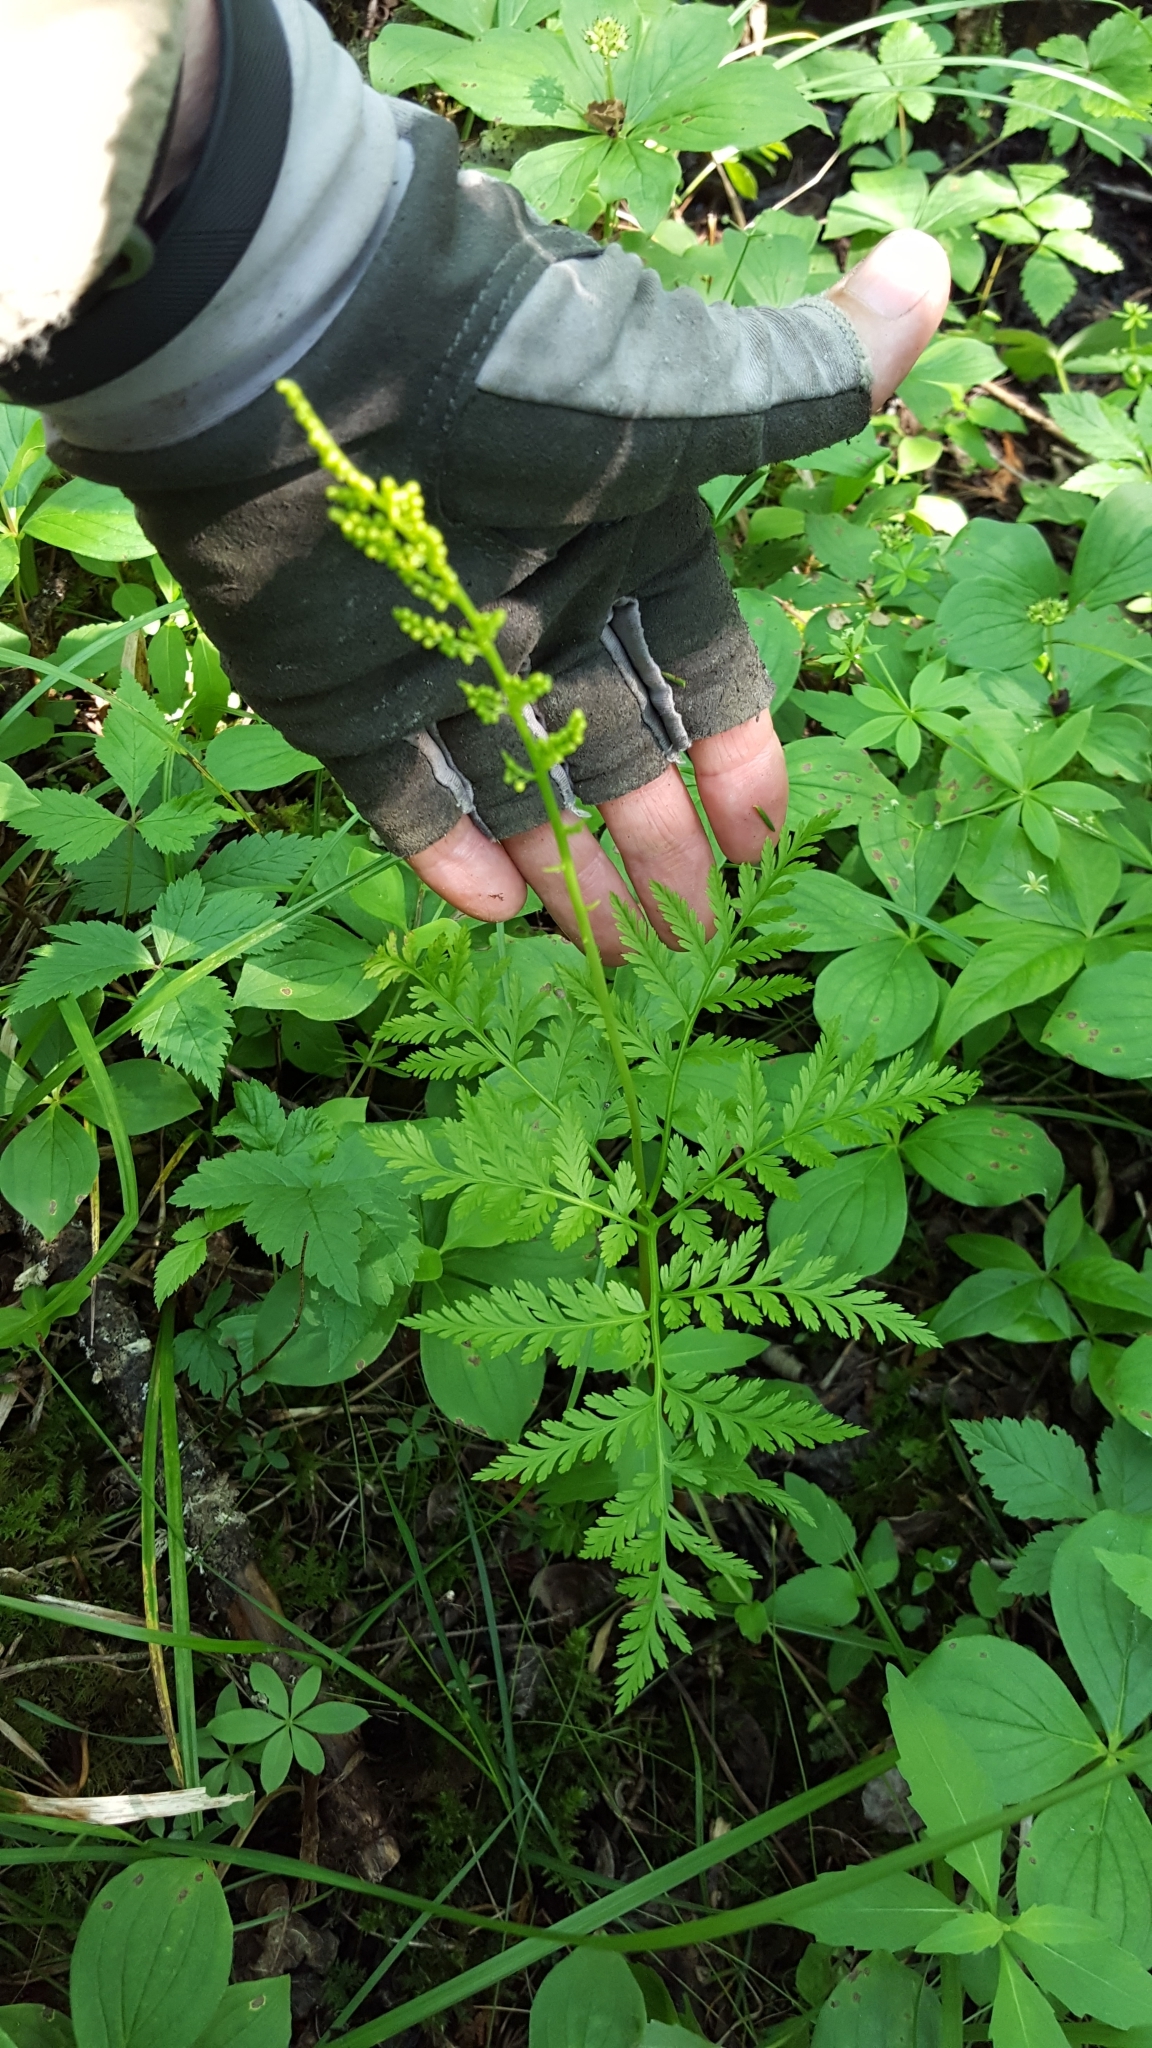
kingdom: Plantae
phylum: Tracheophyta
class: Polypodiopsida
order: Ophioglossales
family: Ophioglossaceae
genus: Botrypus
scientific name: Botrypus virginianus
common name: Common grapefern
